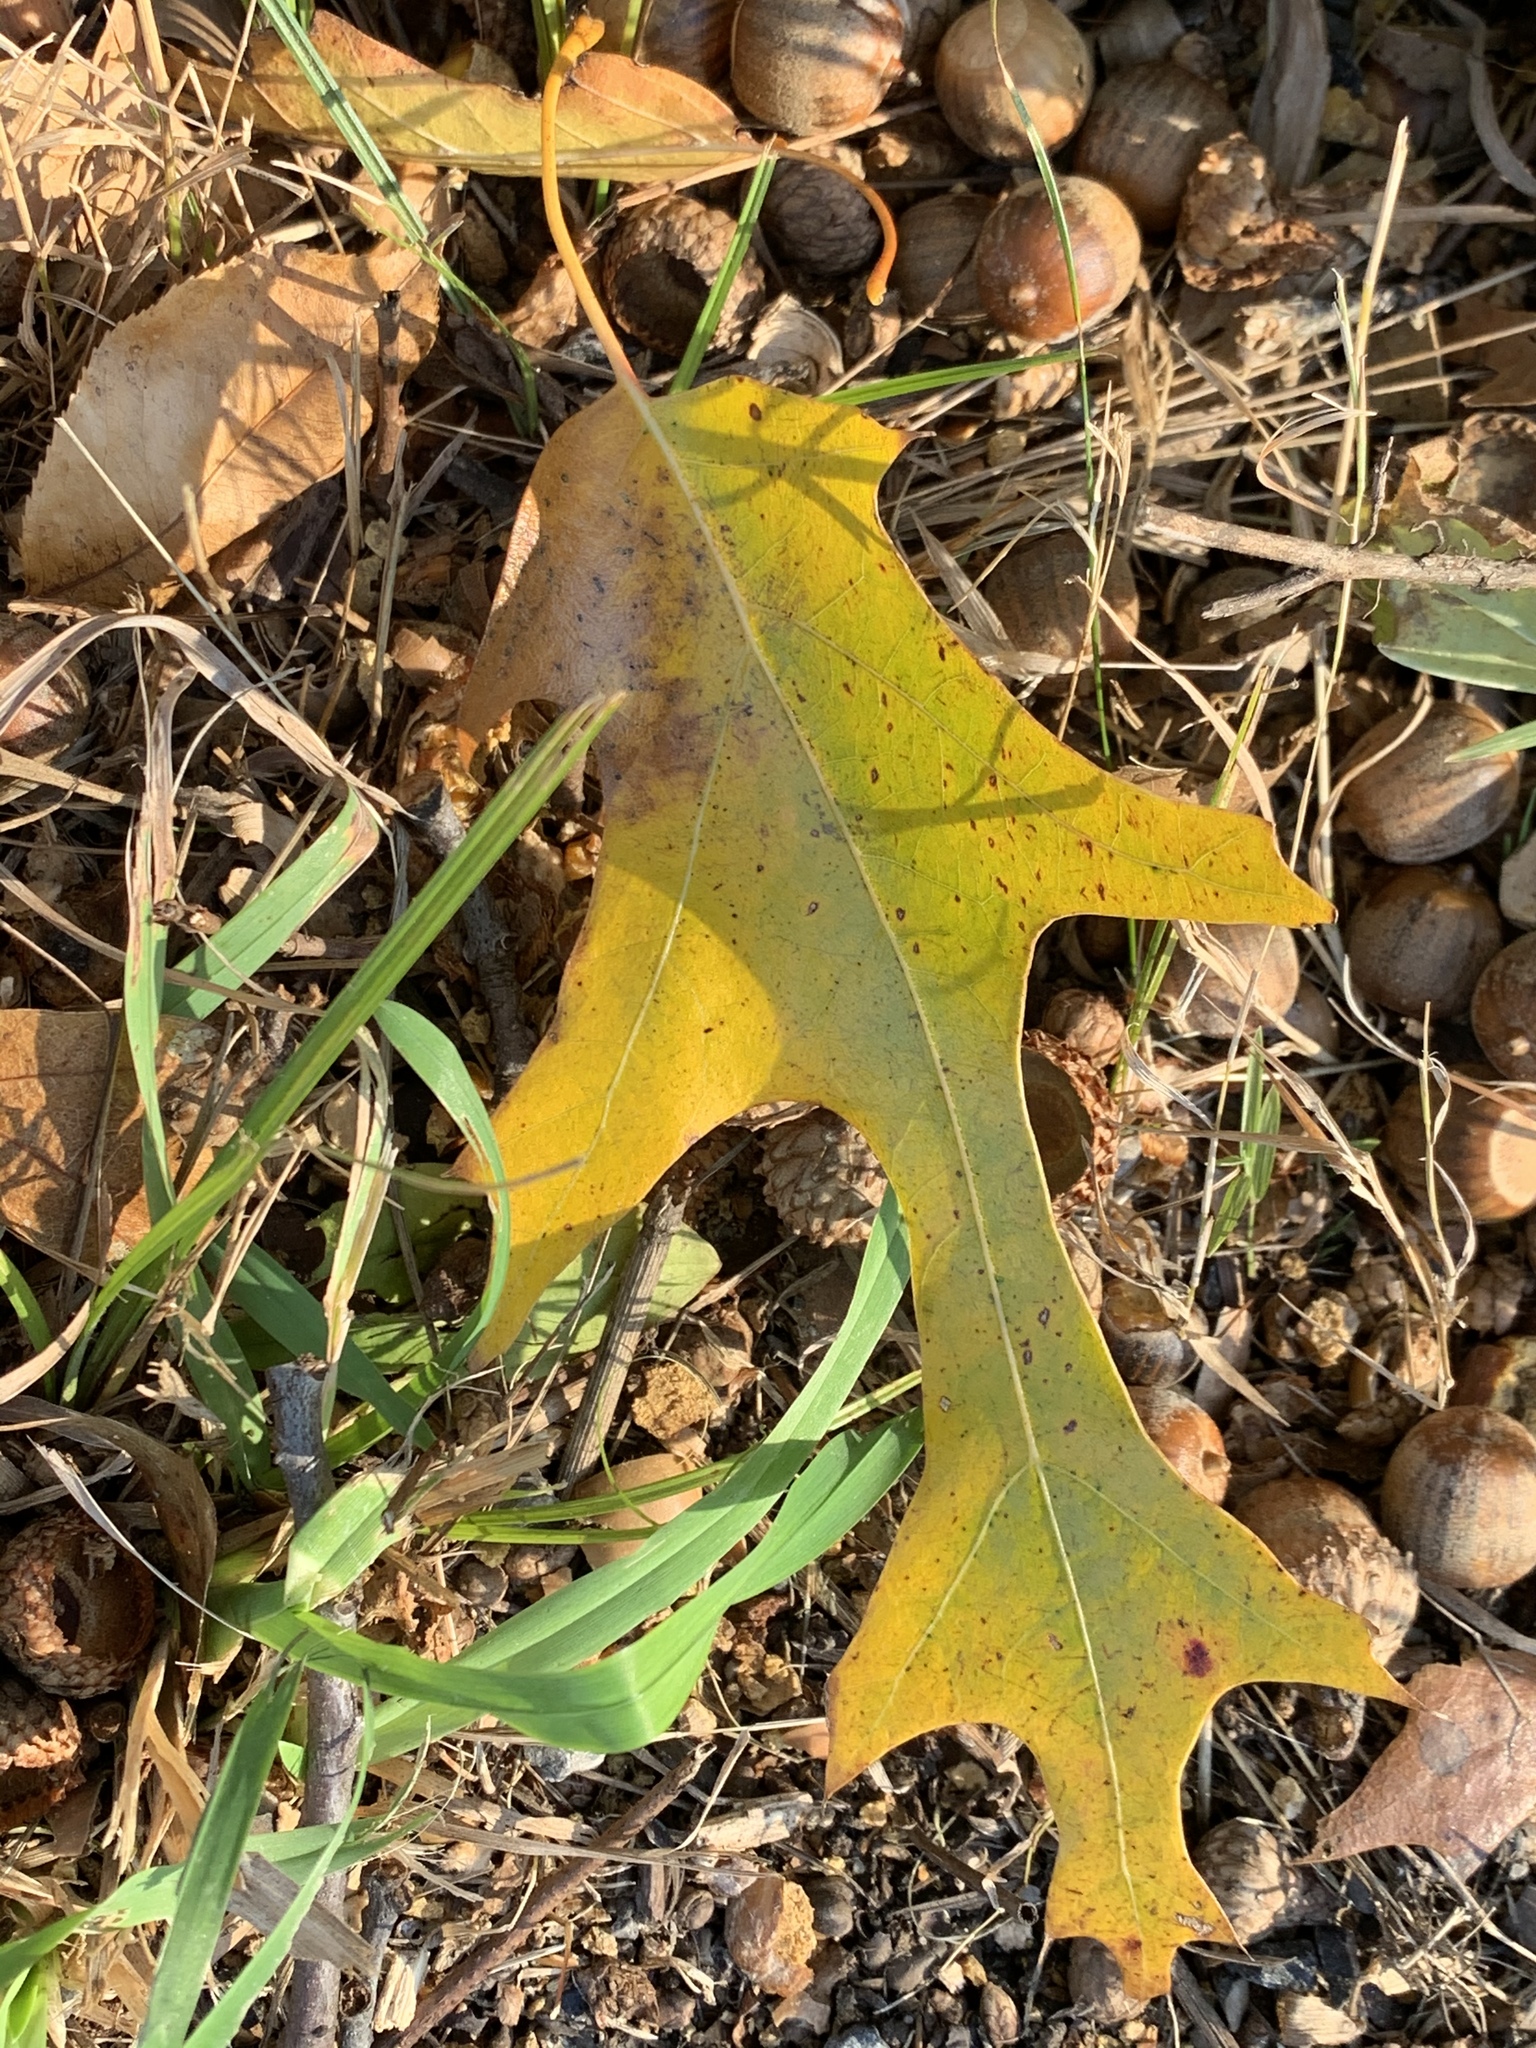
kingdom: Plantae
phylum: Tracheophyta
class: Magnoliopsida
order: Fagales
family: Fagaceae
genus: Quercus
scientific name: Quercus velutina
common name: Black oak
